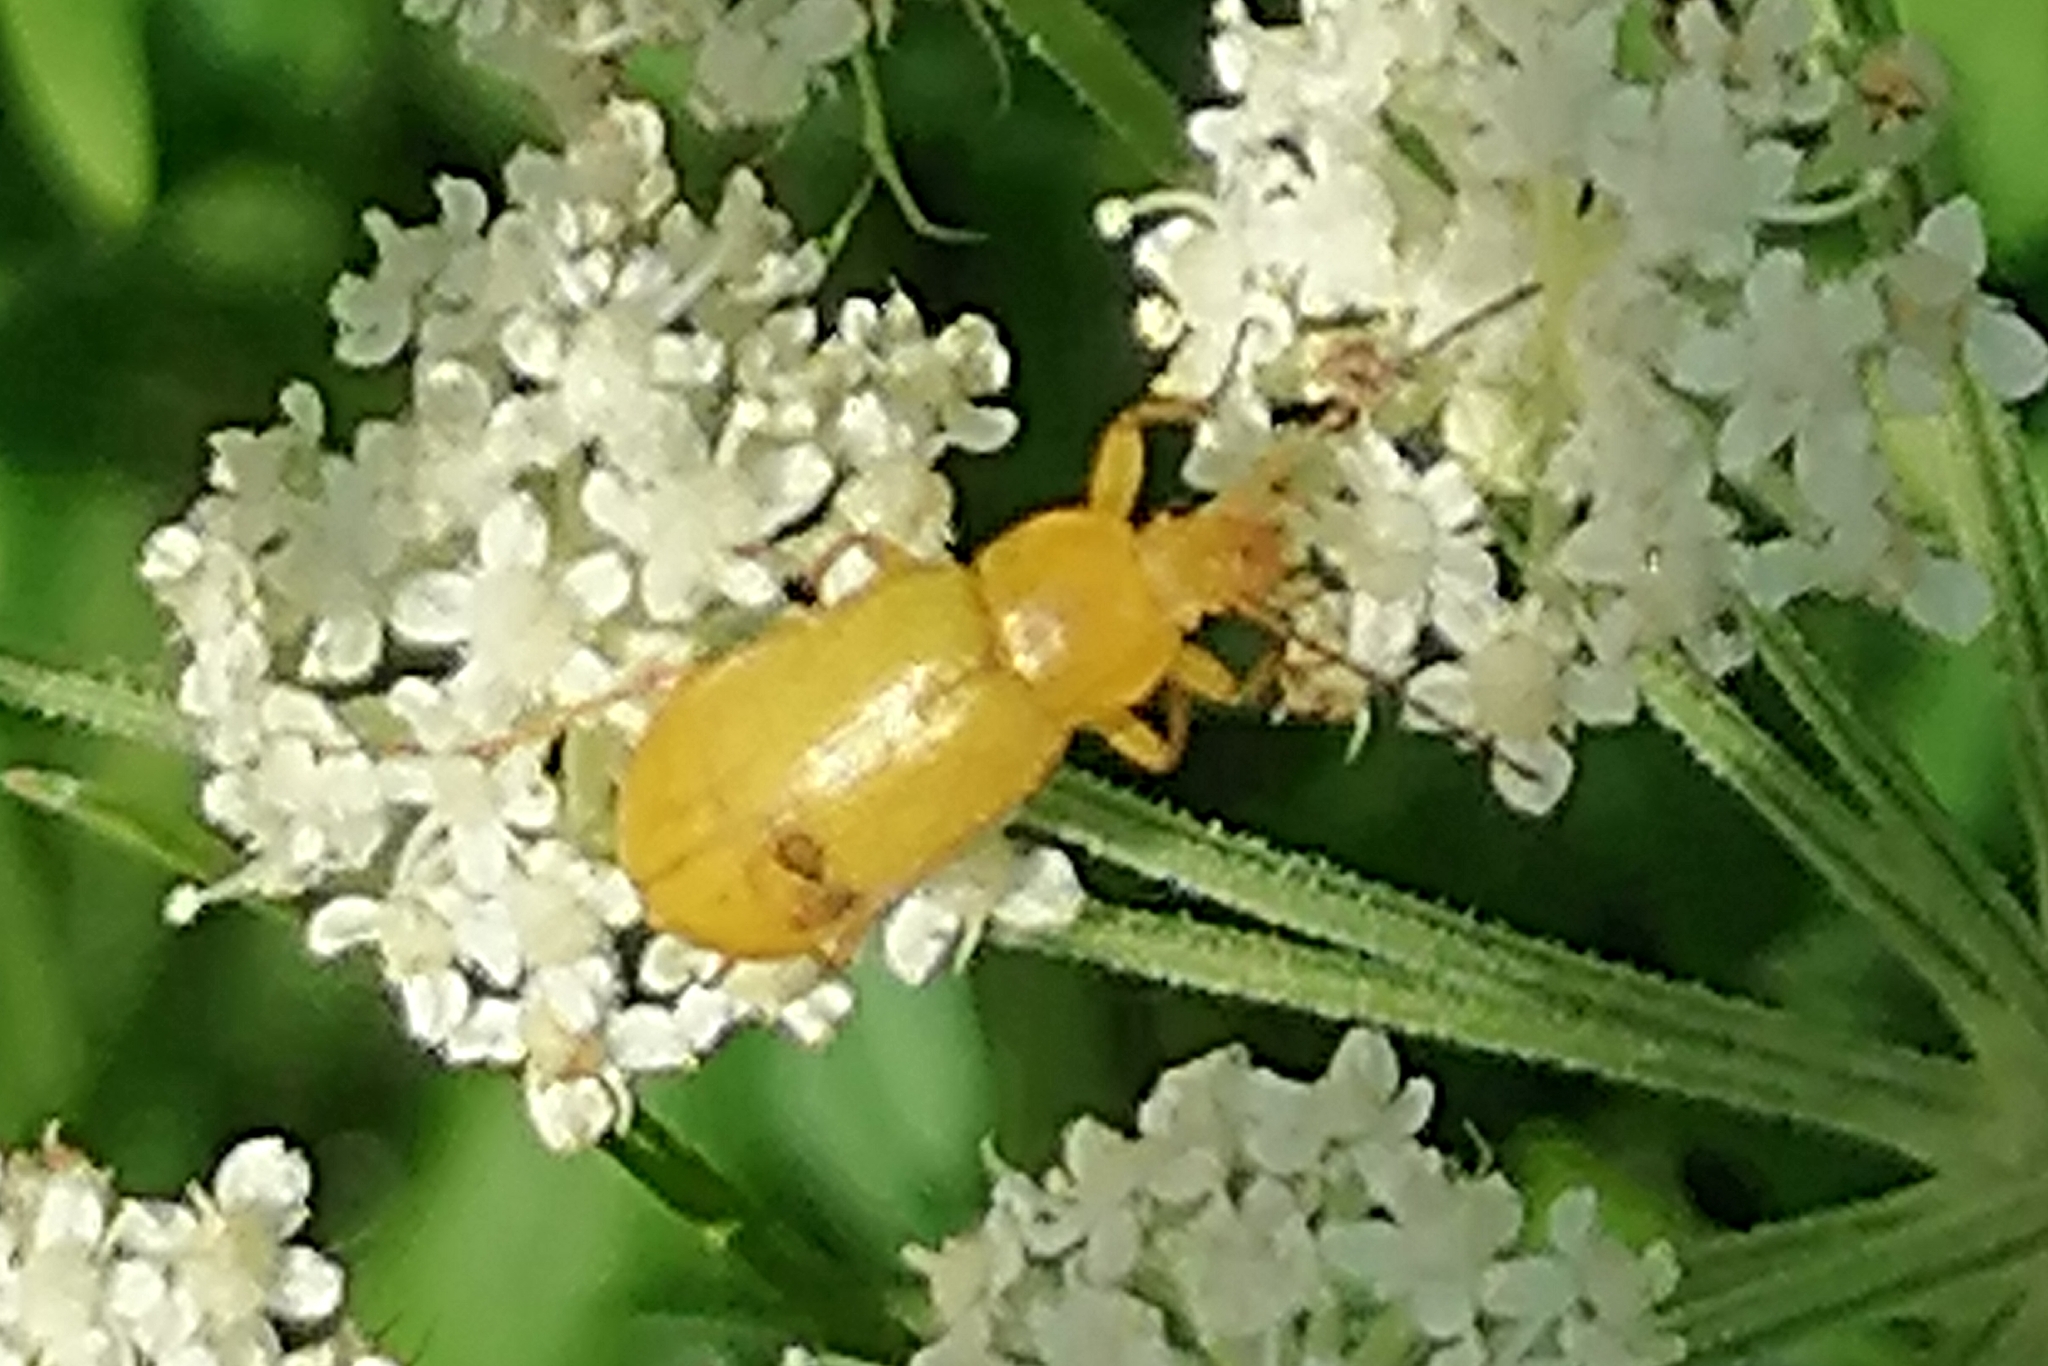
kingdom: Animalia
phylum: Arthropoda
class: Insecta
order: Coleoptera
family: Tenebrionidae
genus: Cteniopus
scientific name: Cteniopus sulphureus
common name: Sulphur beetle
